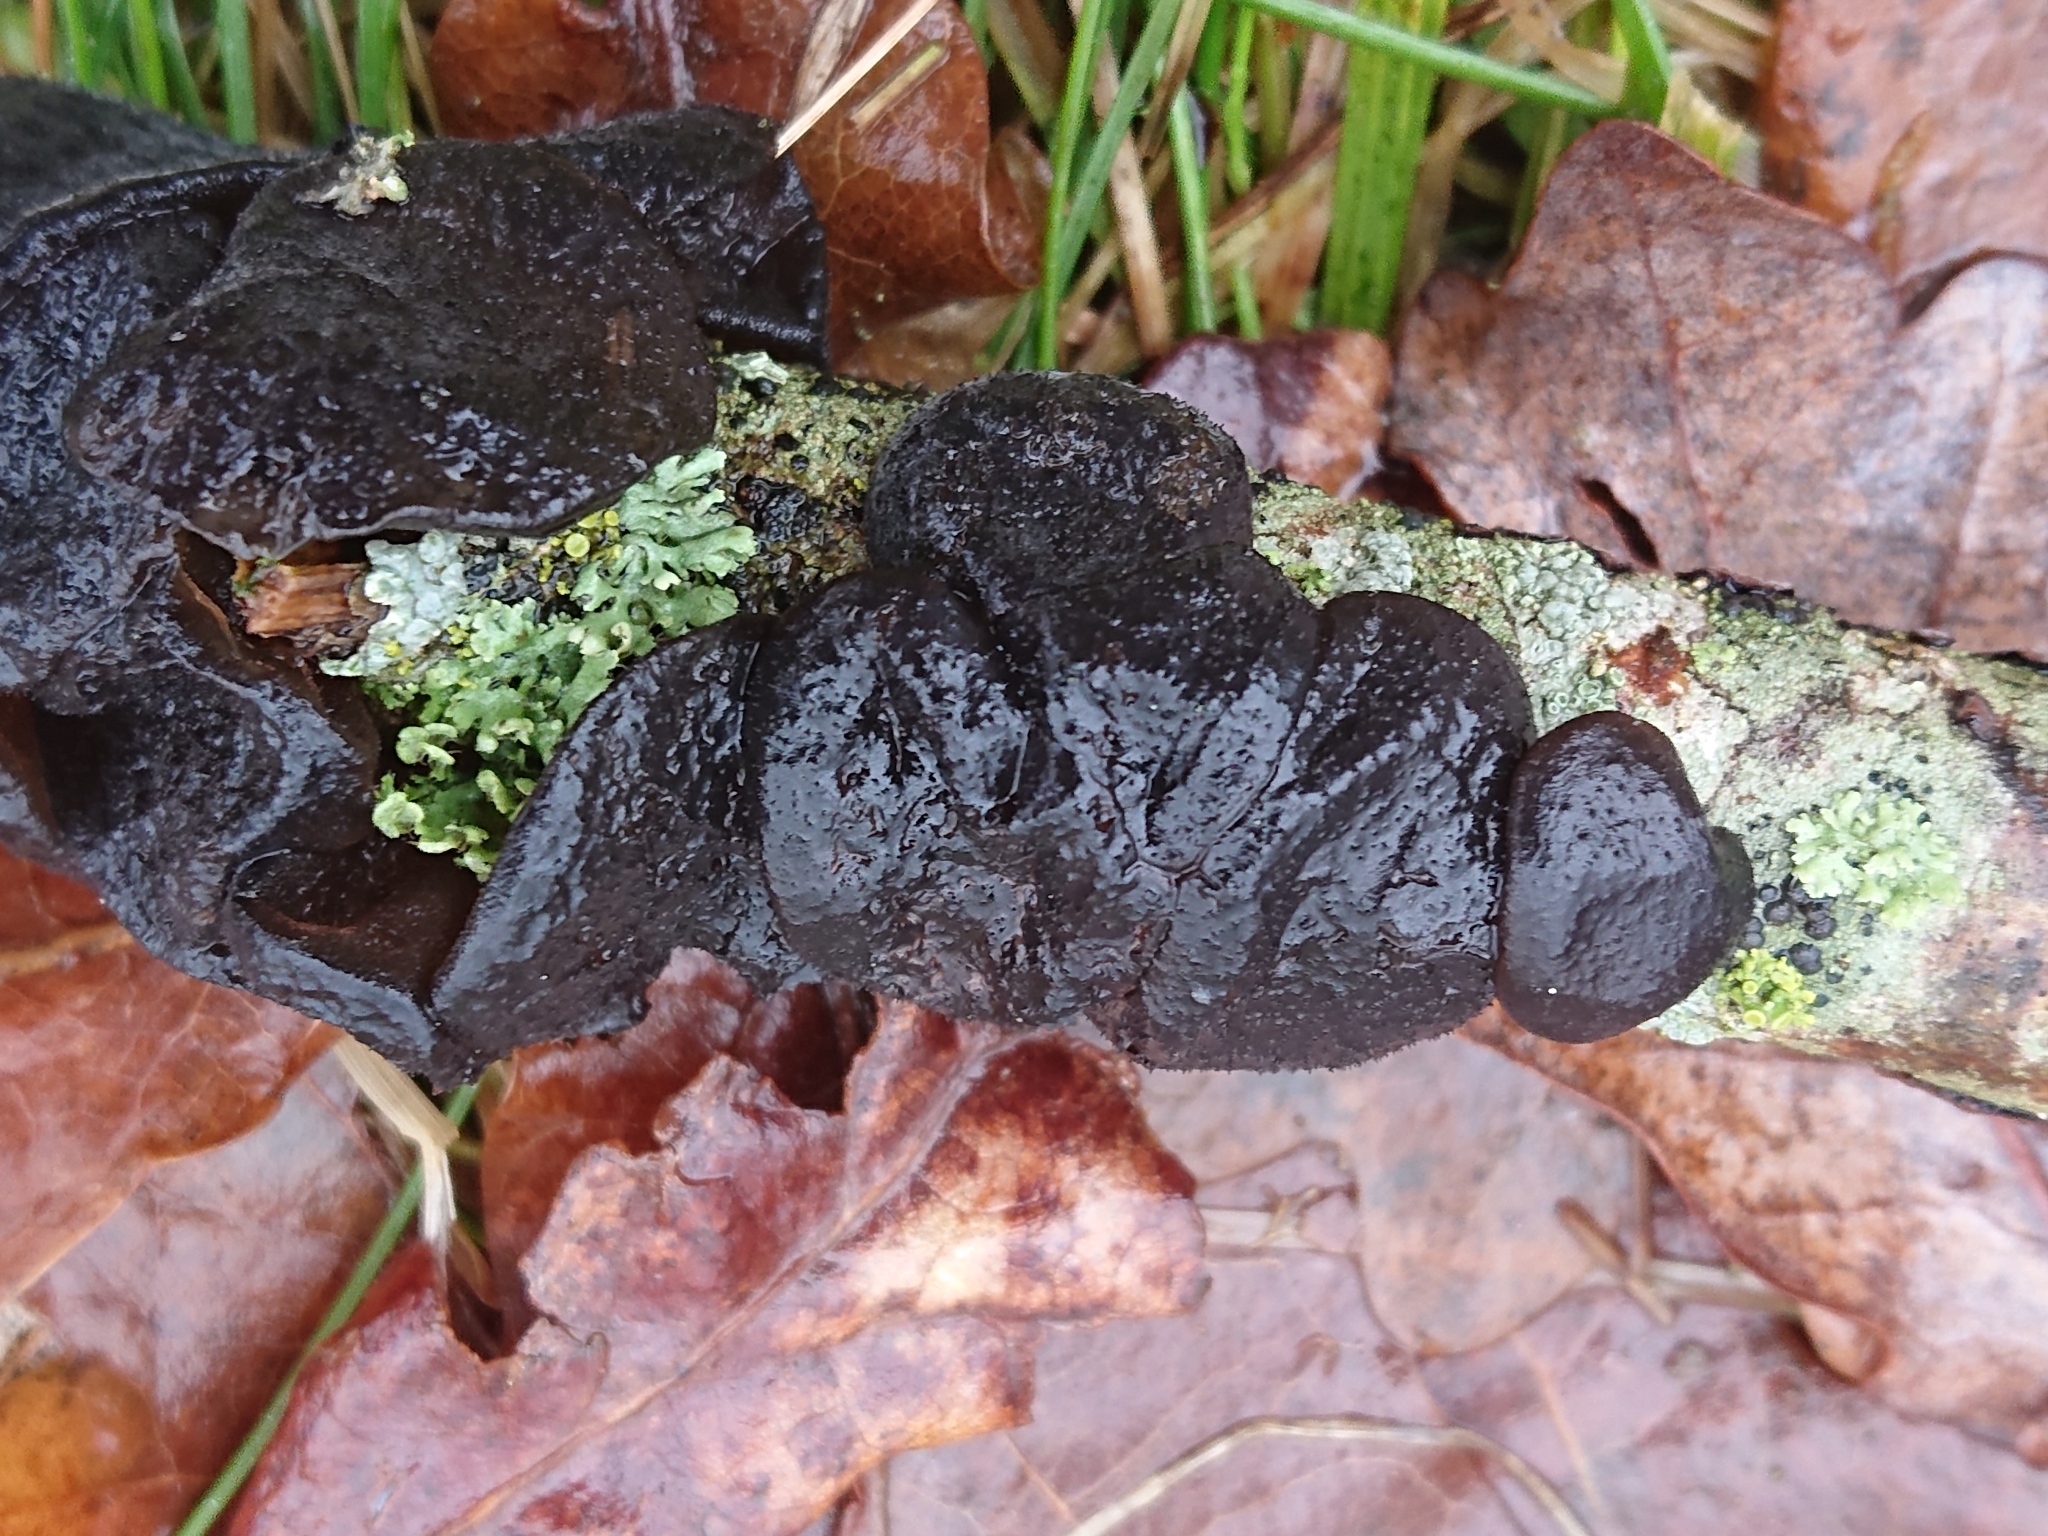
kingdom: Fungi
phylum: Basidiomycota
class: Agaricomycetes
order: Auriculariales
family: Auriculariaceae
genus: Exidia
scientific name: Exidia glandulosa
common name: Witches' butter
